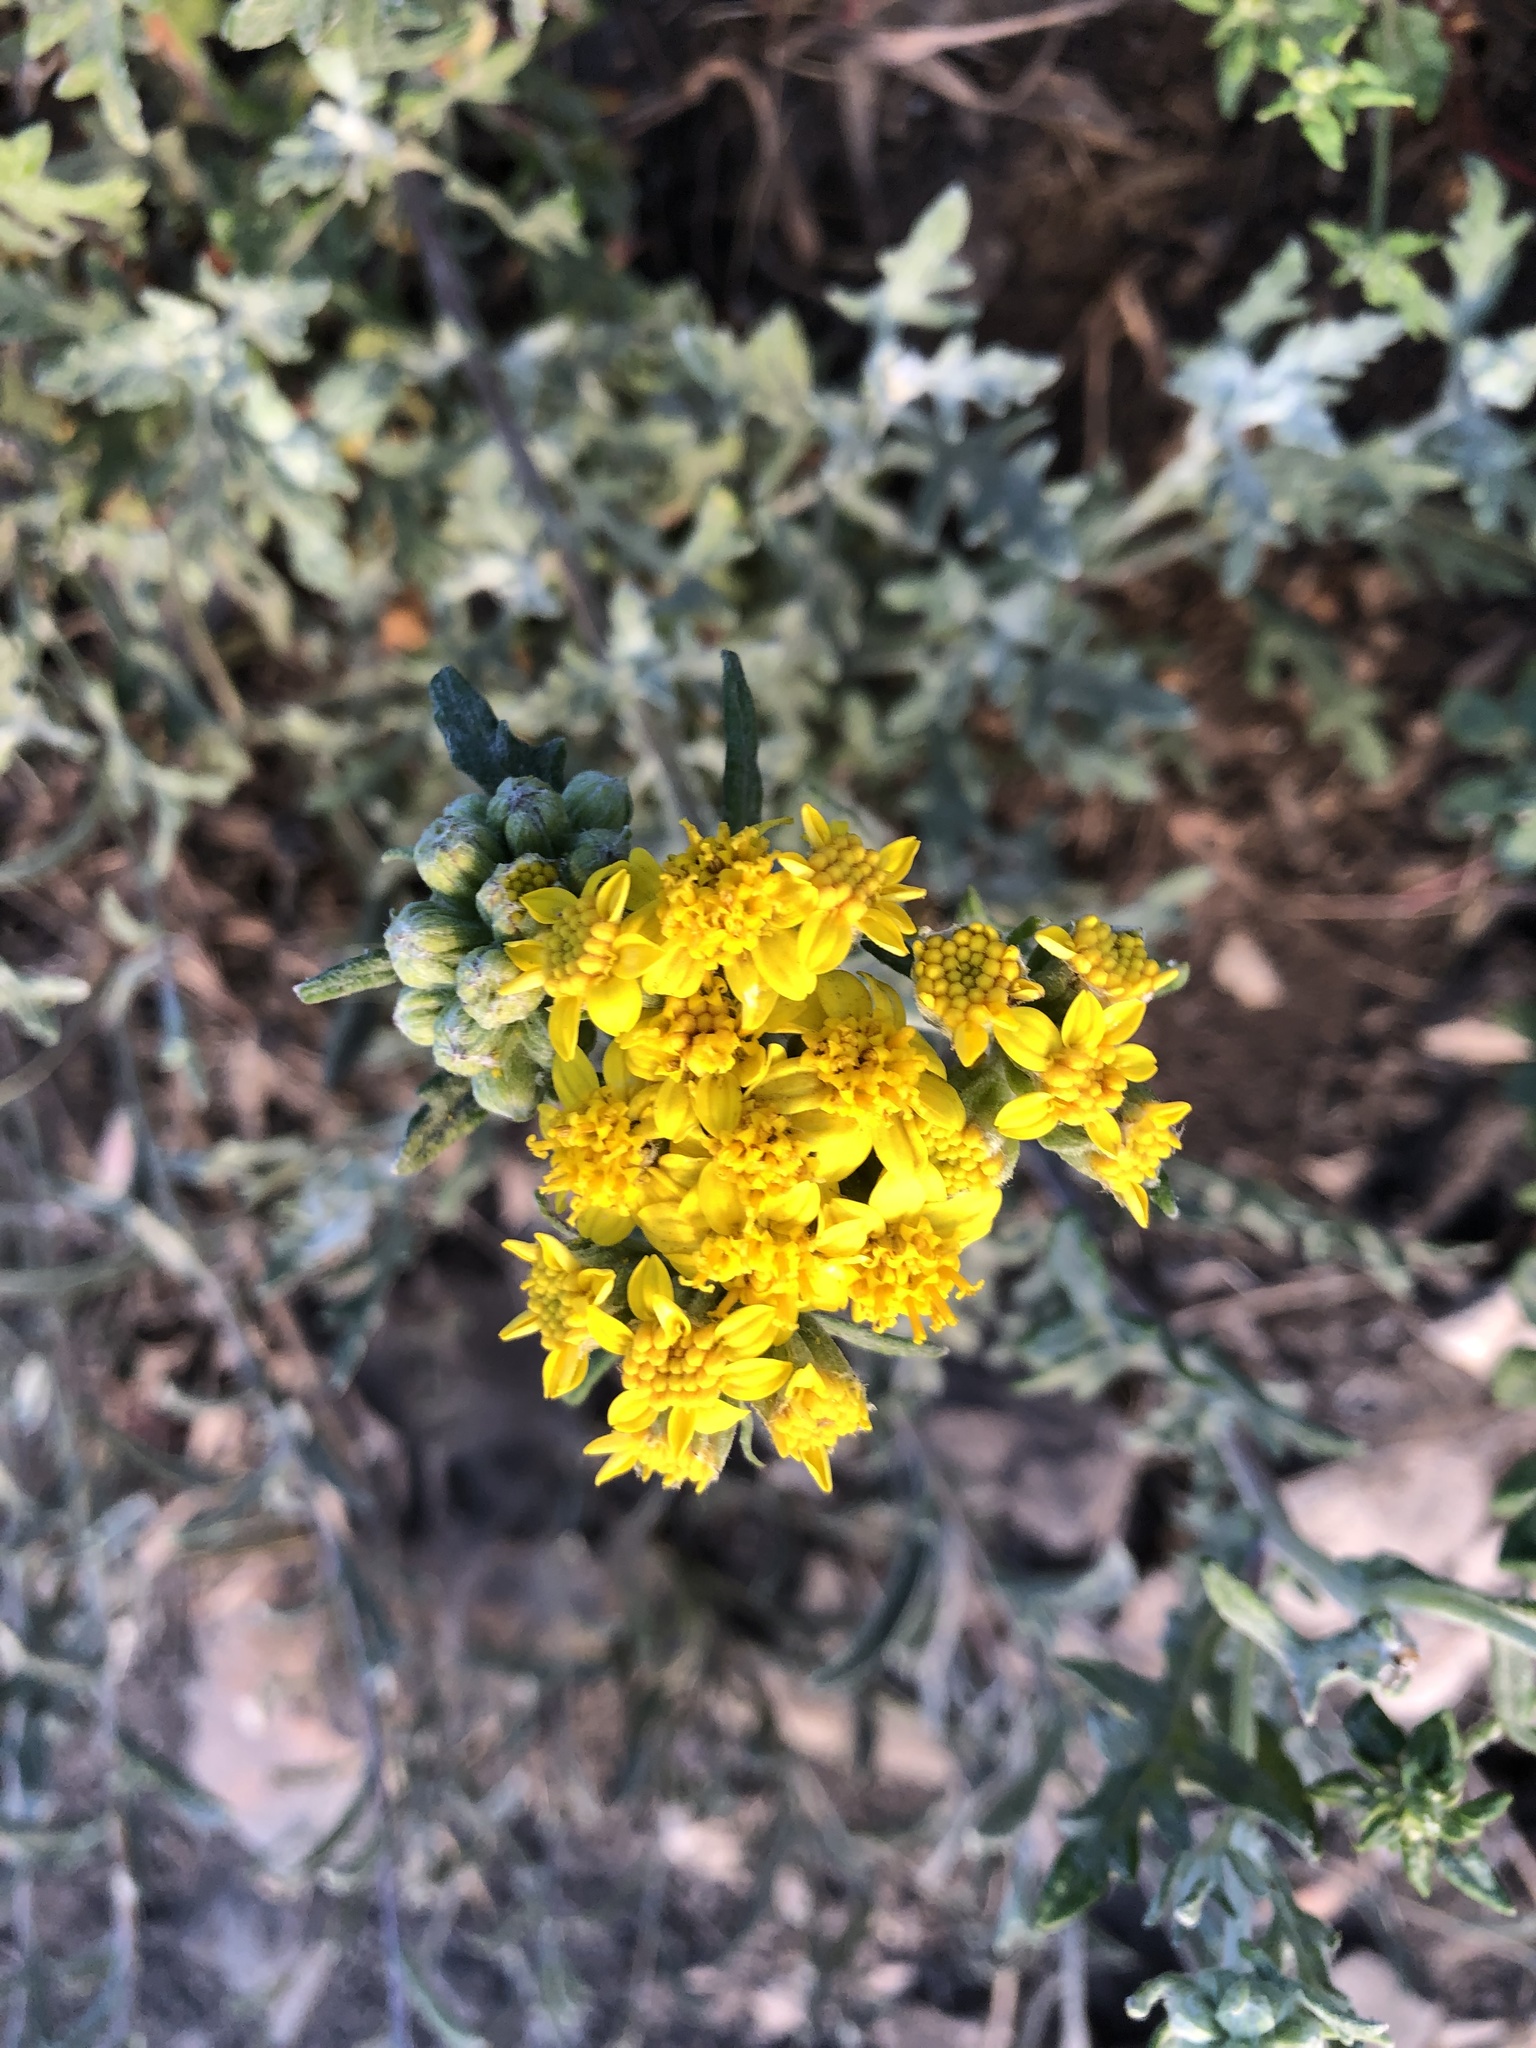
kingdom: Plantae
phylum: Tracheophyta
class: Magnoliopsida
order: Asterales
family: Asteraceae
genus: Eriophyllum
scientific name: Eriophyllum staechadifolium
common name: Lizardtail
